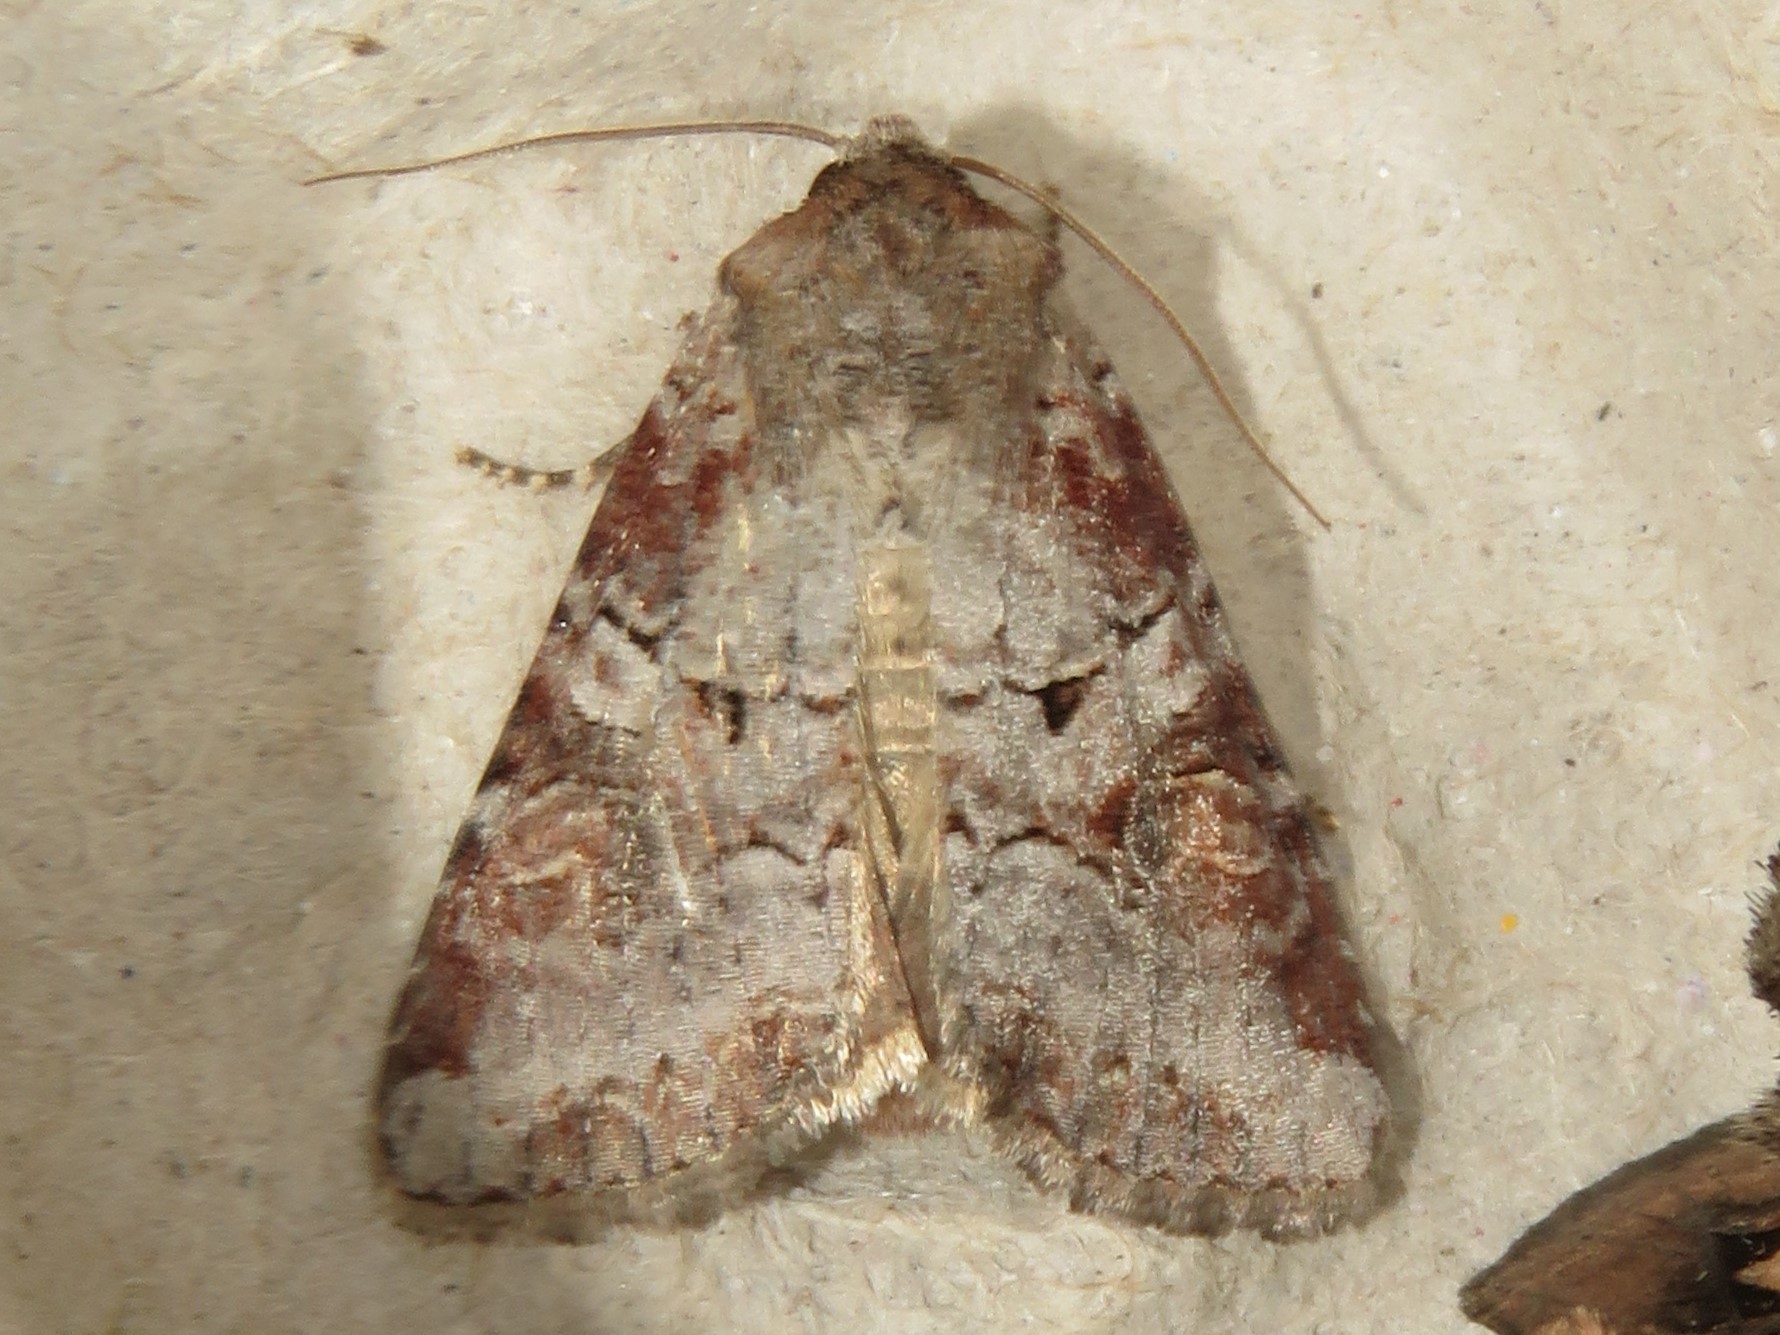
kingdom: Animalia
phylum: Arthropoda
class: Insecta
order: Lepidoptera
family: Noctuidae
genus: Trichordestra
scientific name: Trichordestra legitima
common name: Striped garden caterpillar
